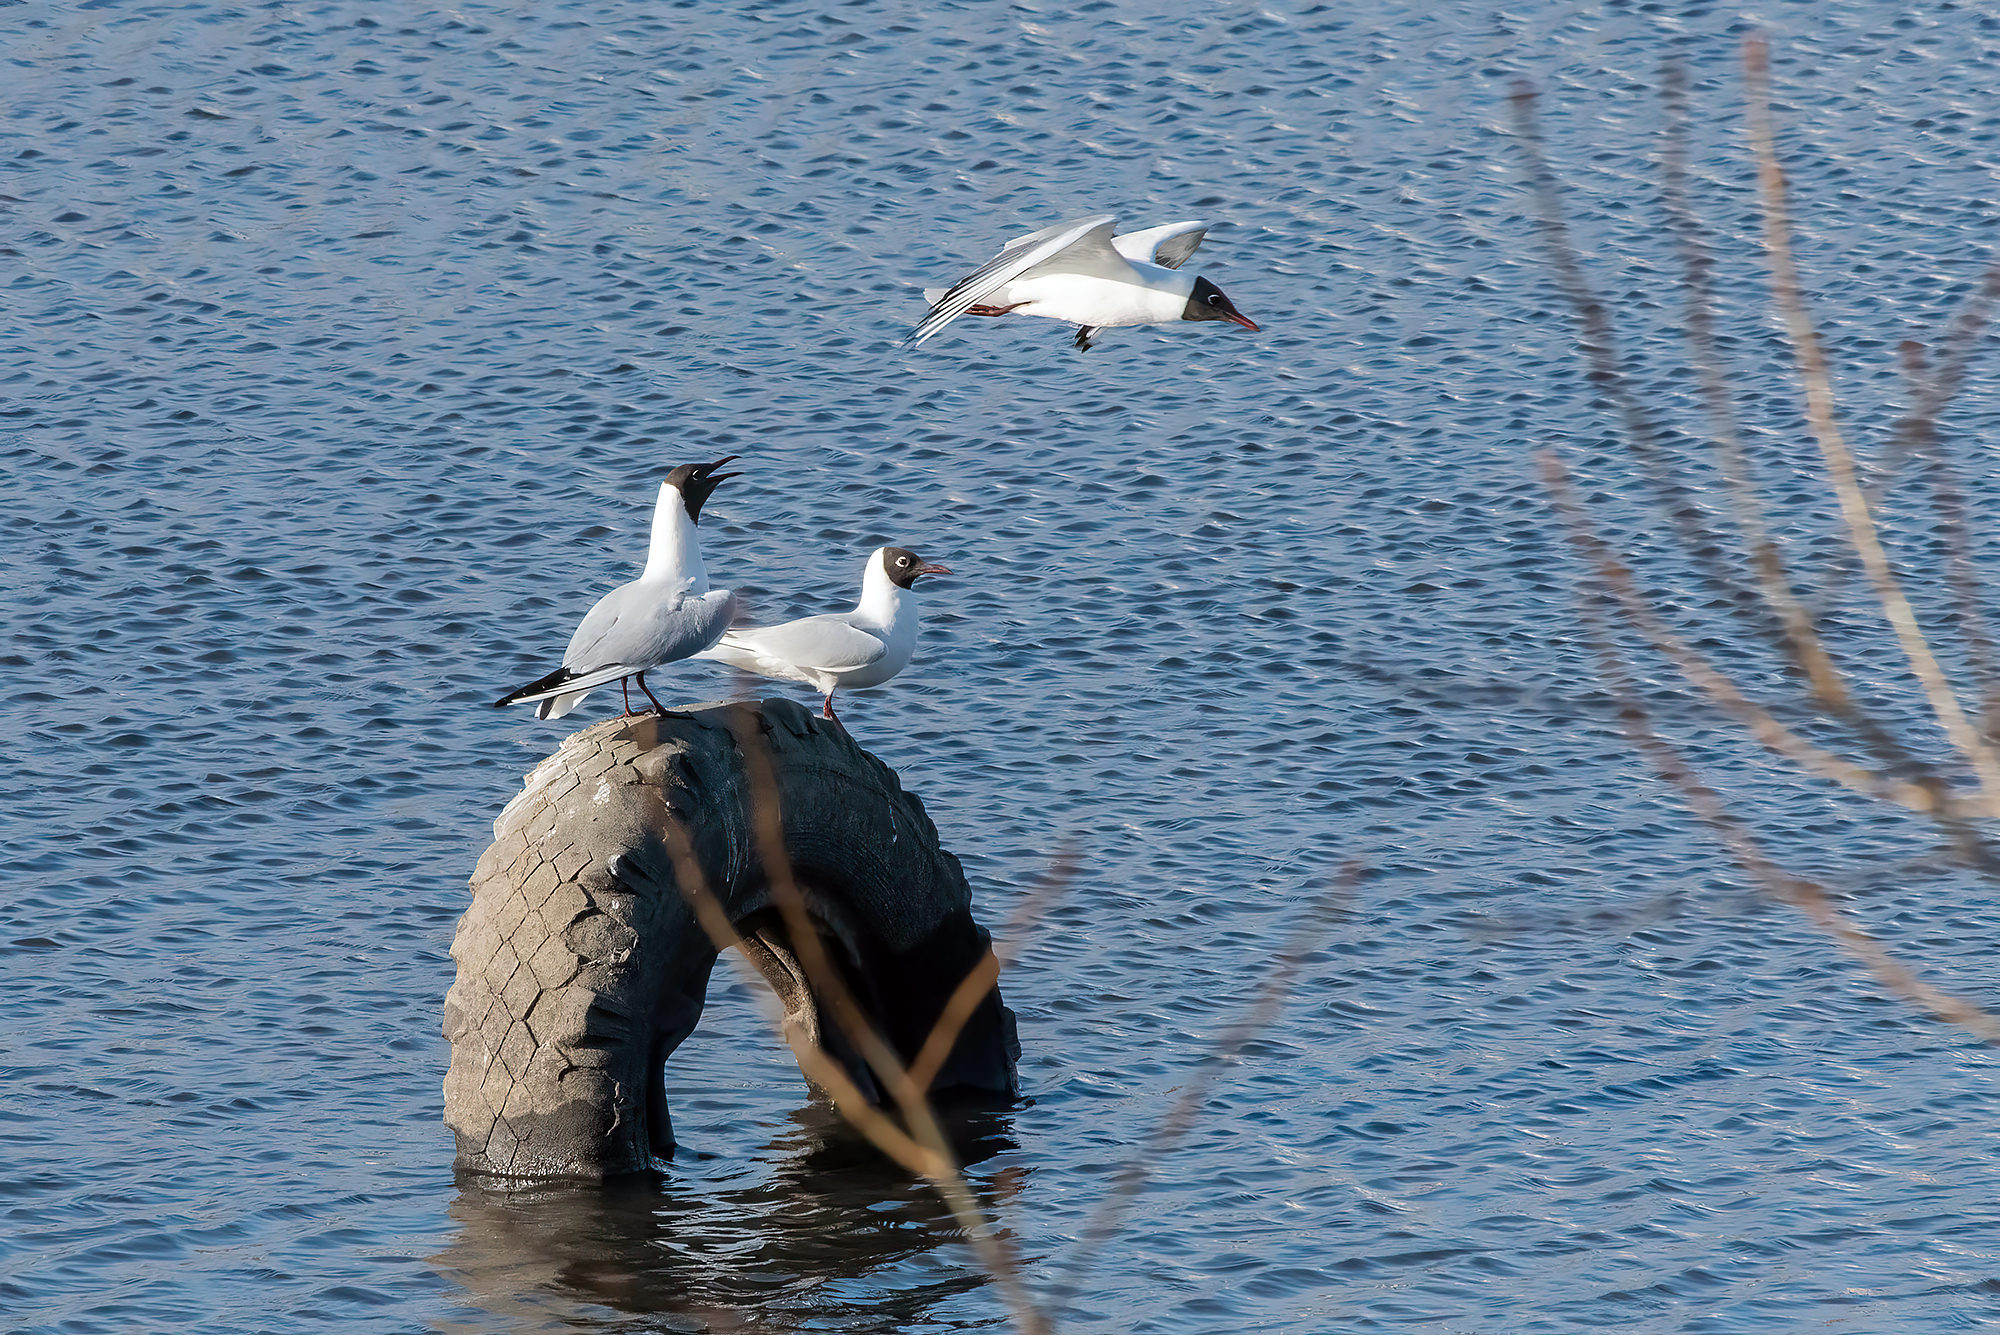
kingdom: Animalia
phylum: Chordata
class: Aves
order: Charadriiformes
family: Laridae
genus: Chroicocephalus
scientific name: Chroicocephalus ridibundus
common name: Black-headed gull
